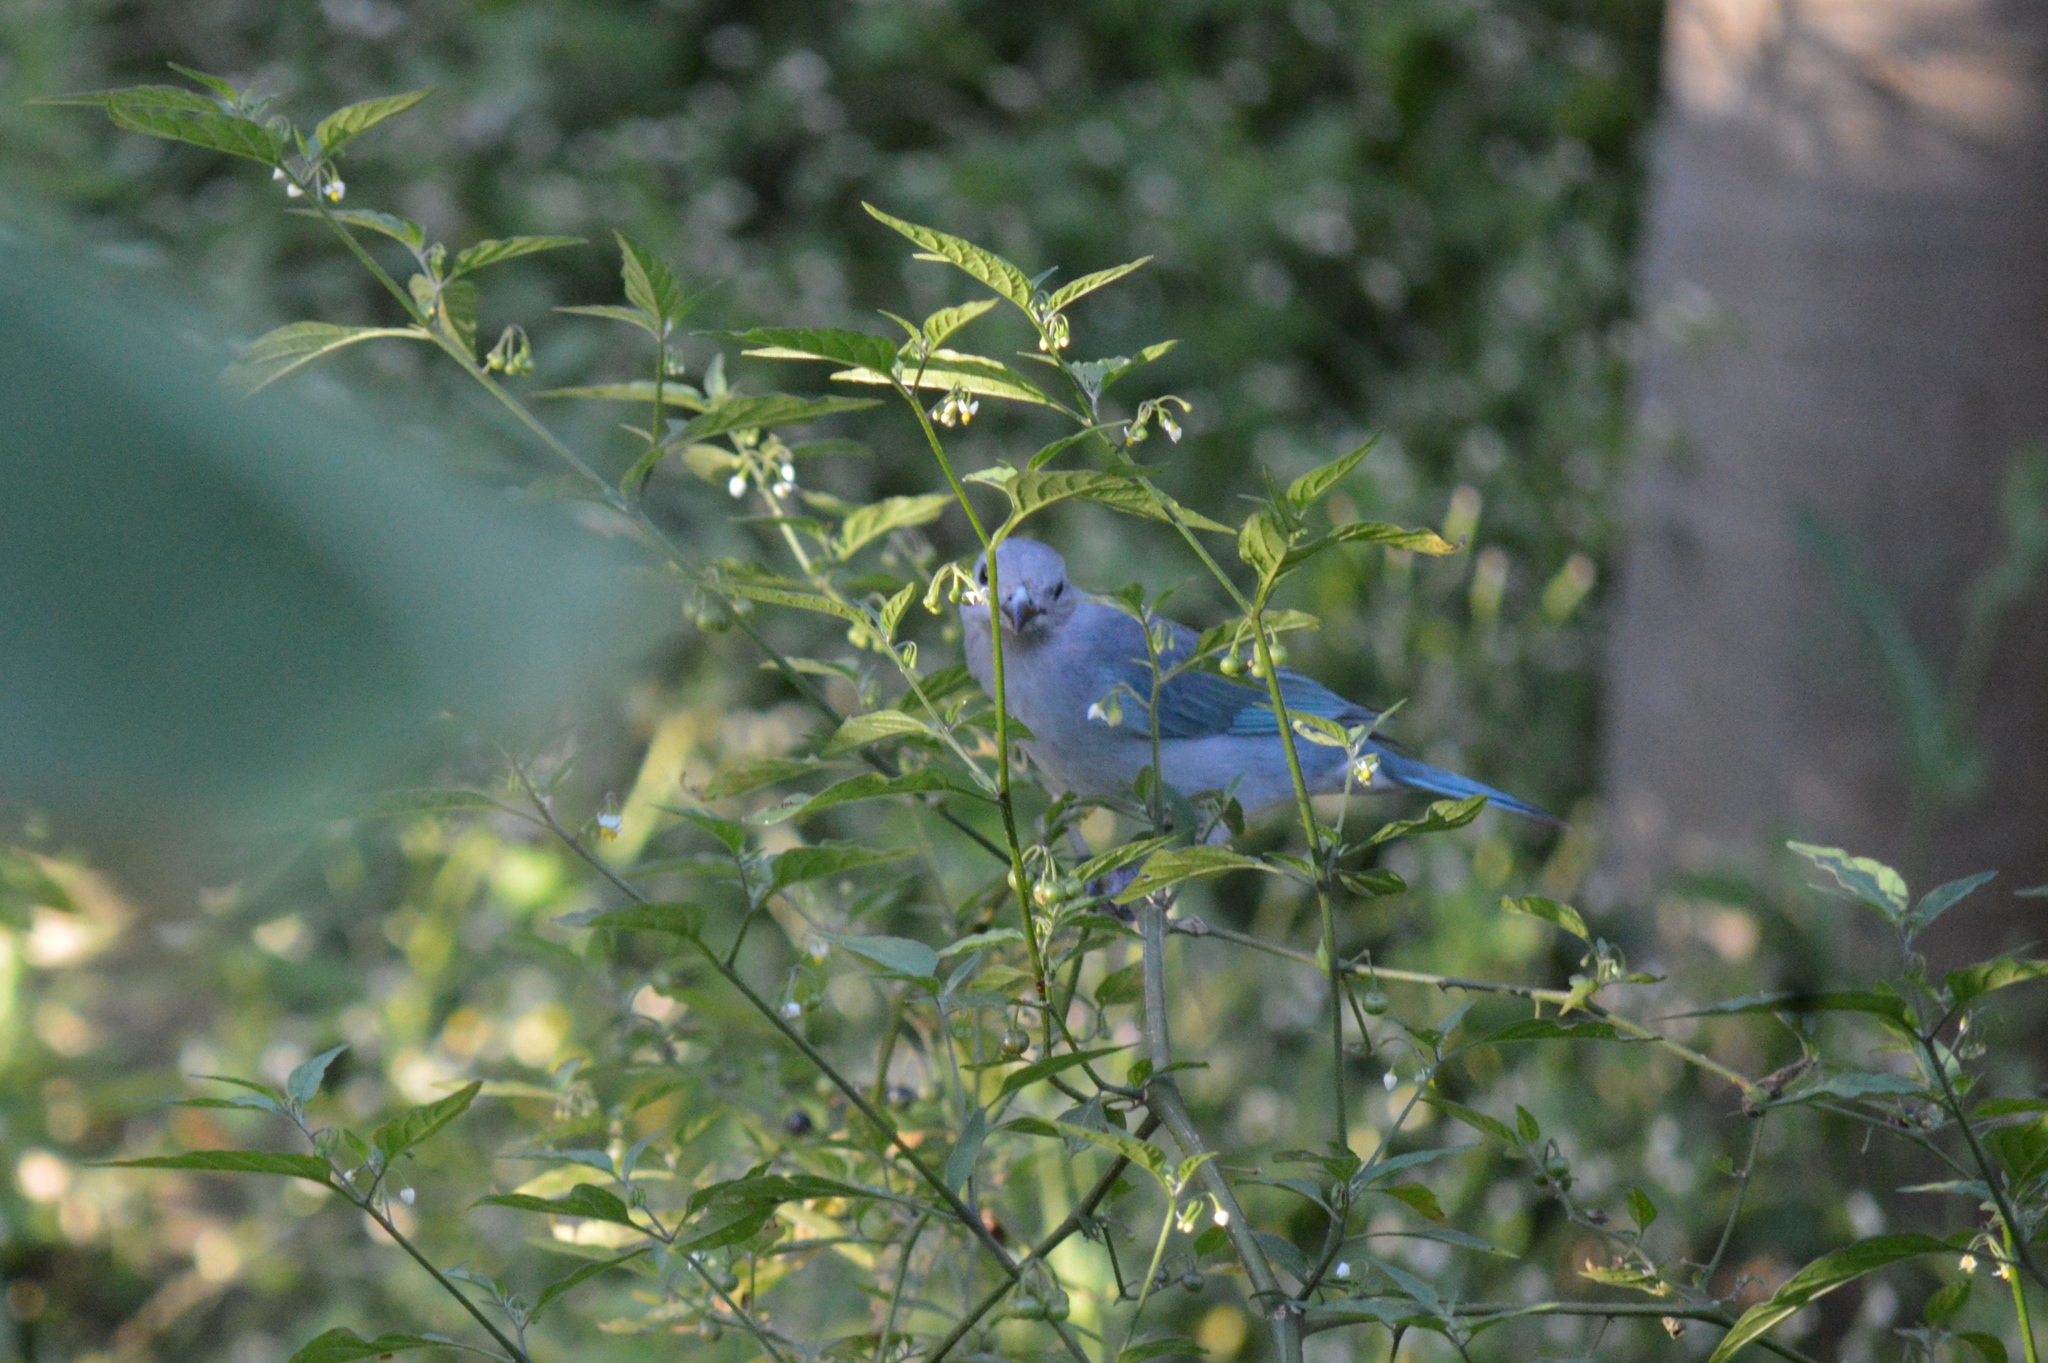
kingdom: Animalia
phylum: Chordata
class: Aves
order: Passeriformes
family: Thraupidae
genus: Thraupis
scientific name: Thraupis sayaca
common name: Sayaca tanager
